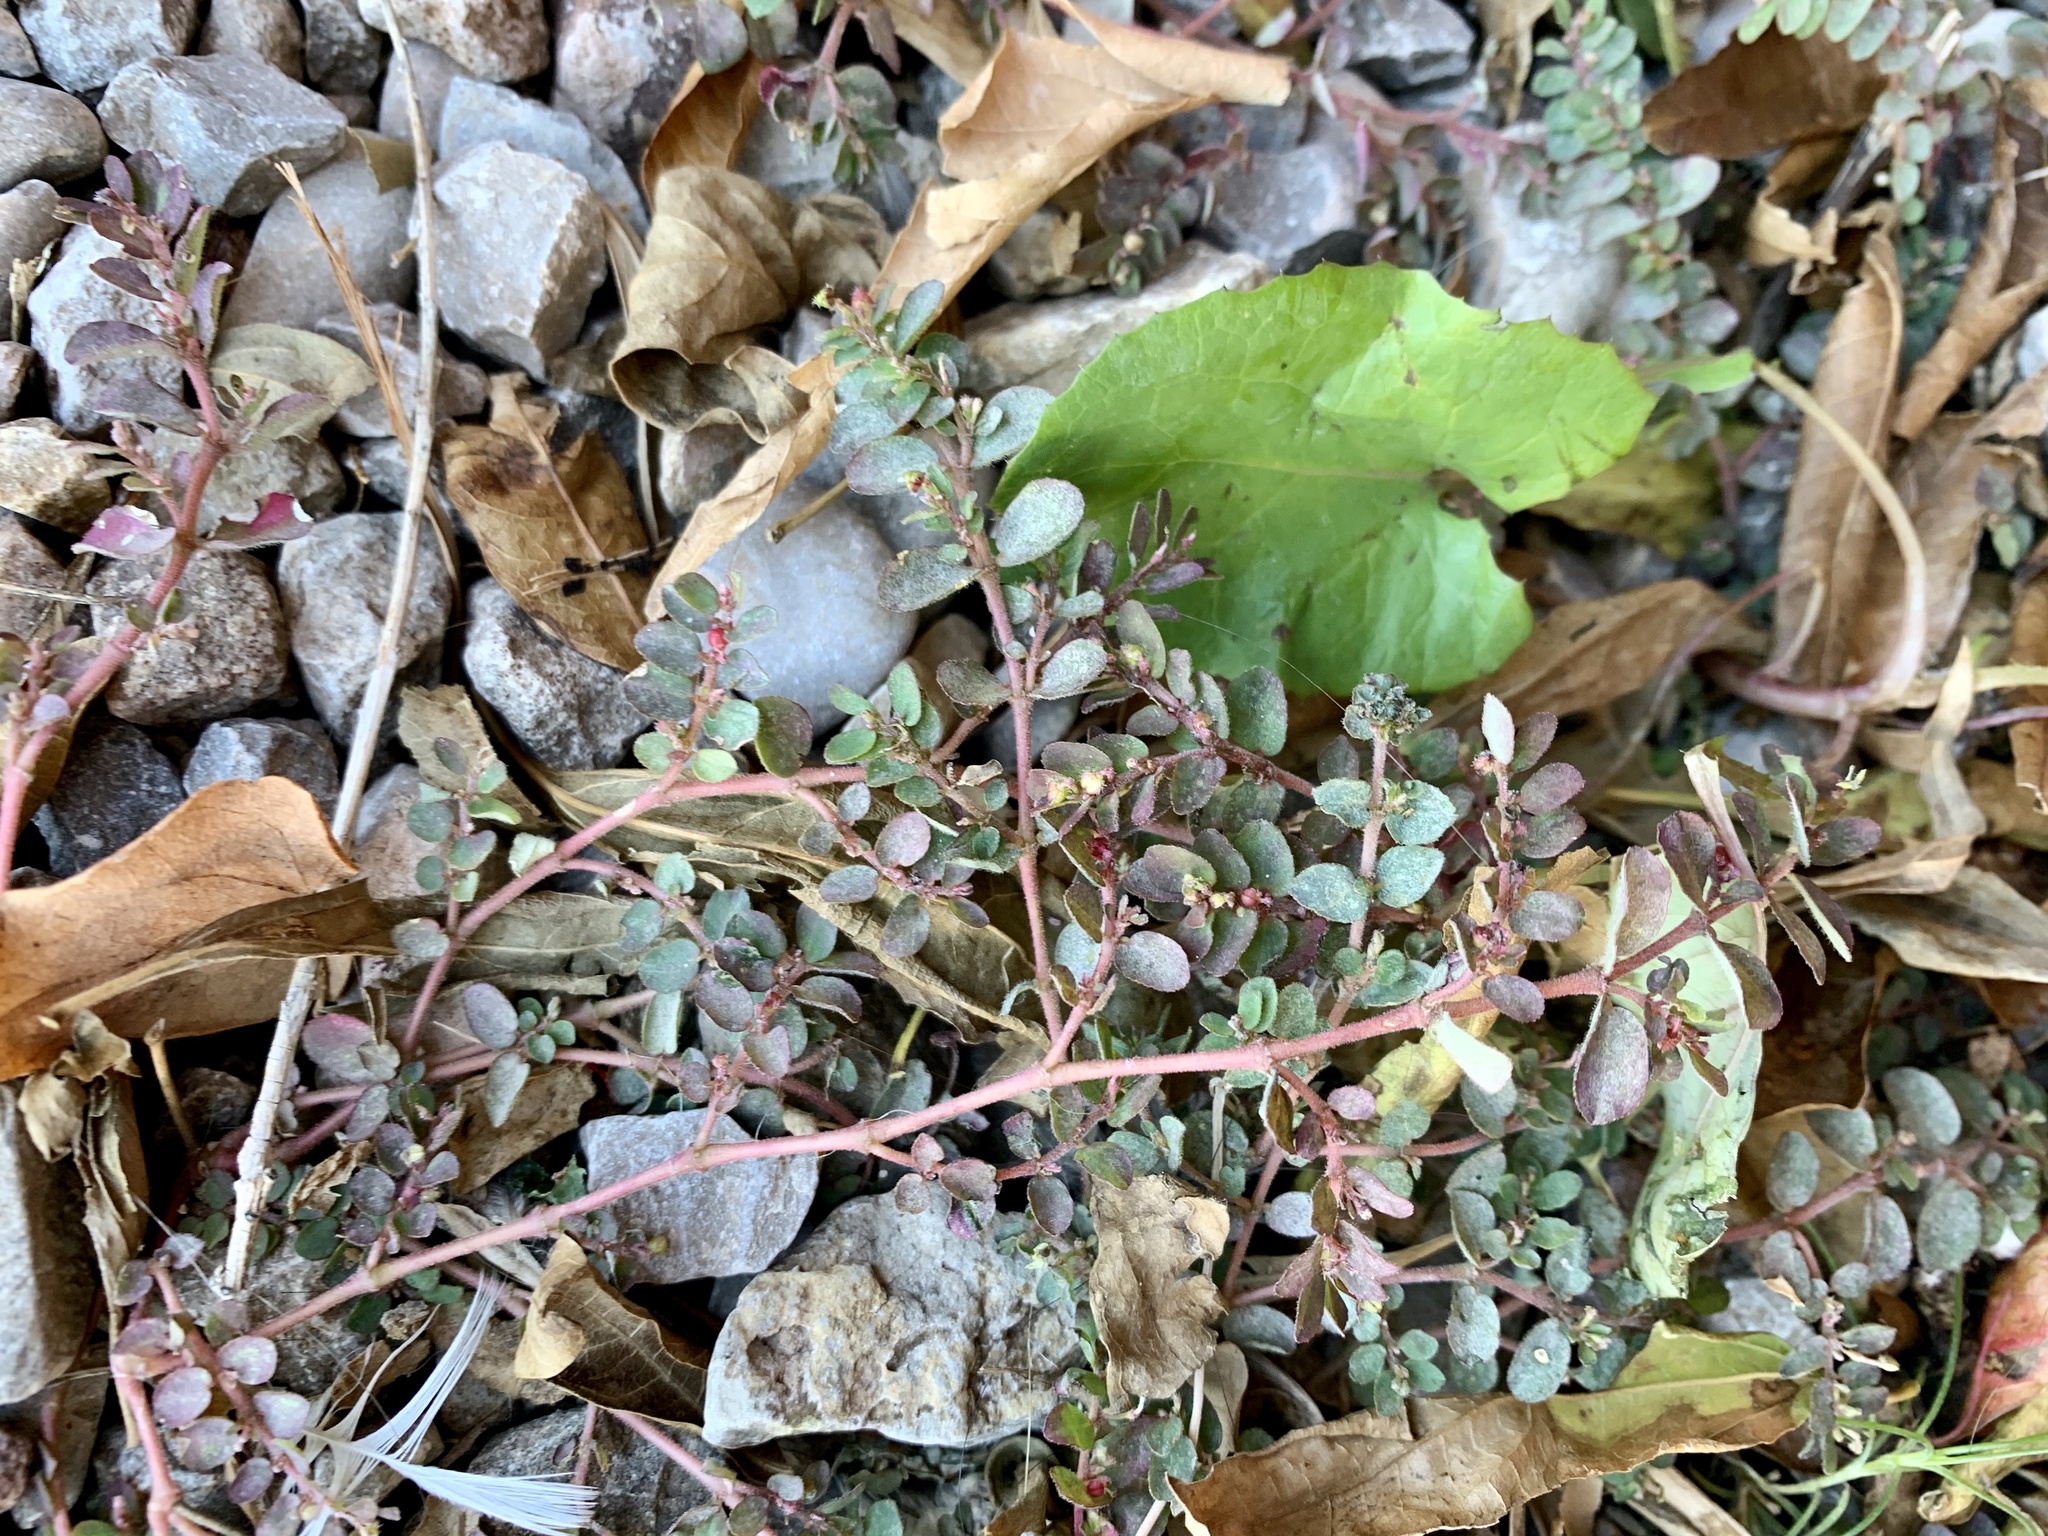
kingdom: Plantae
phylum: Tracheophyta
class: Magnoliopsida
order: Malpighiales
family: Euphorbiaceae
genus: Euphorbia
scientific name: Euphorbia prostrata
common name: Prostrate sandmat
